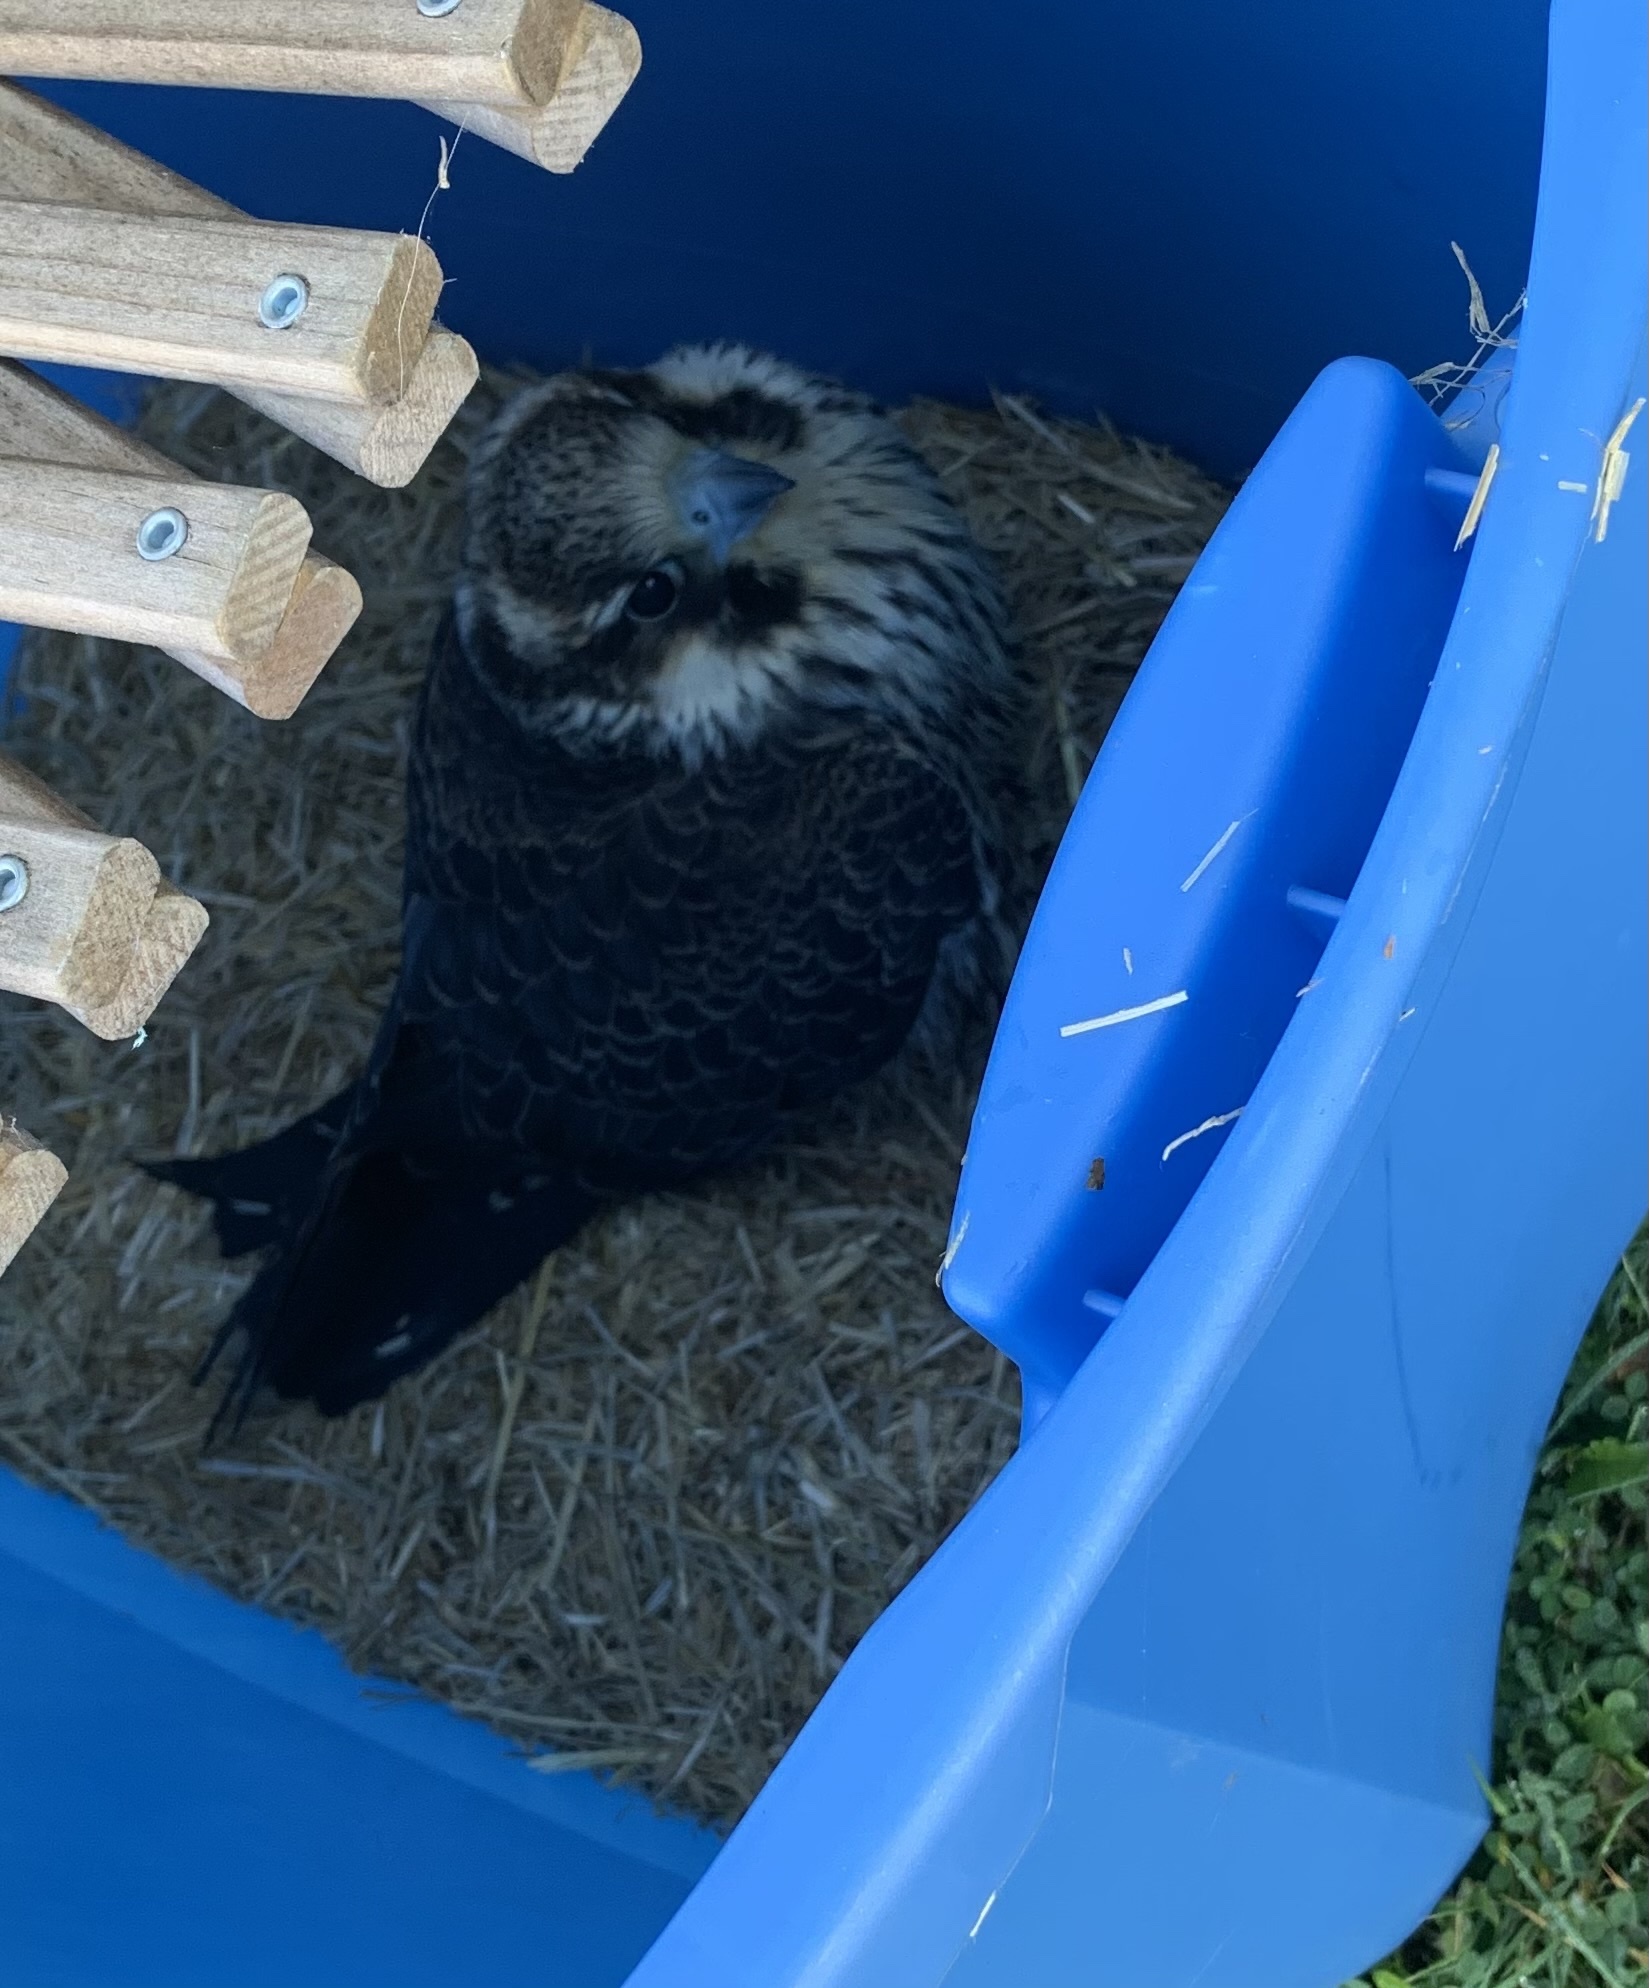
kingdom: Animalia
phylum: Chordata
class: Aves
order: Falconiformes
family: Falconidae
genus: Falco
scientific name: Falco peregrinus
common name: Peregrine falcon
